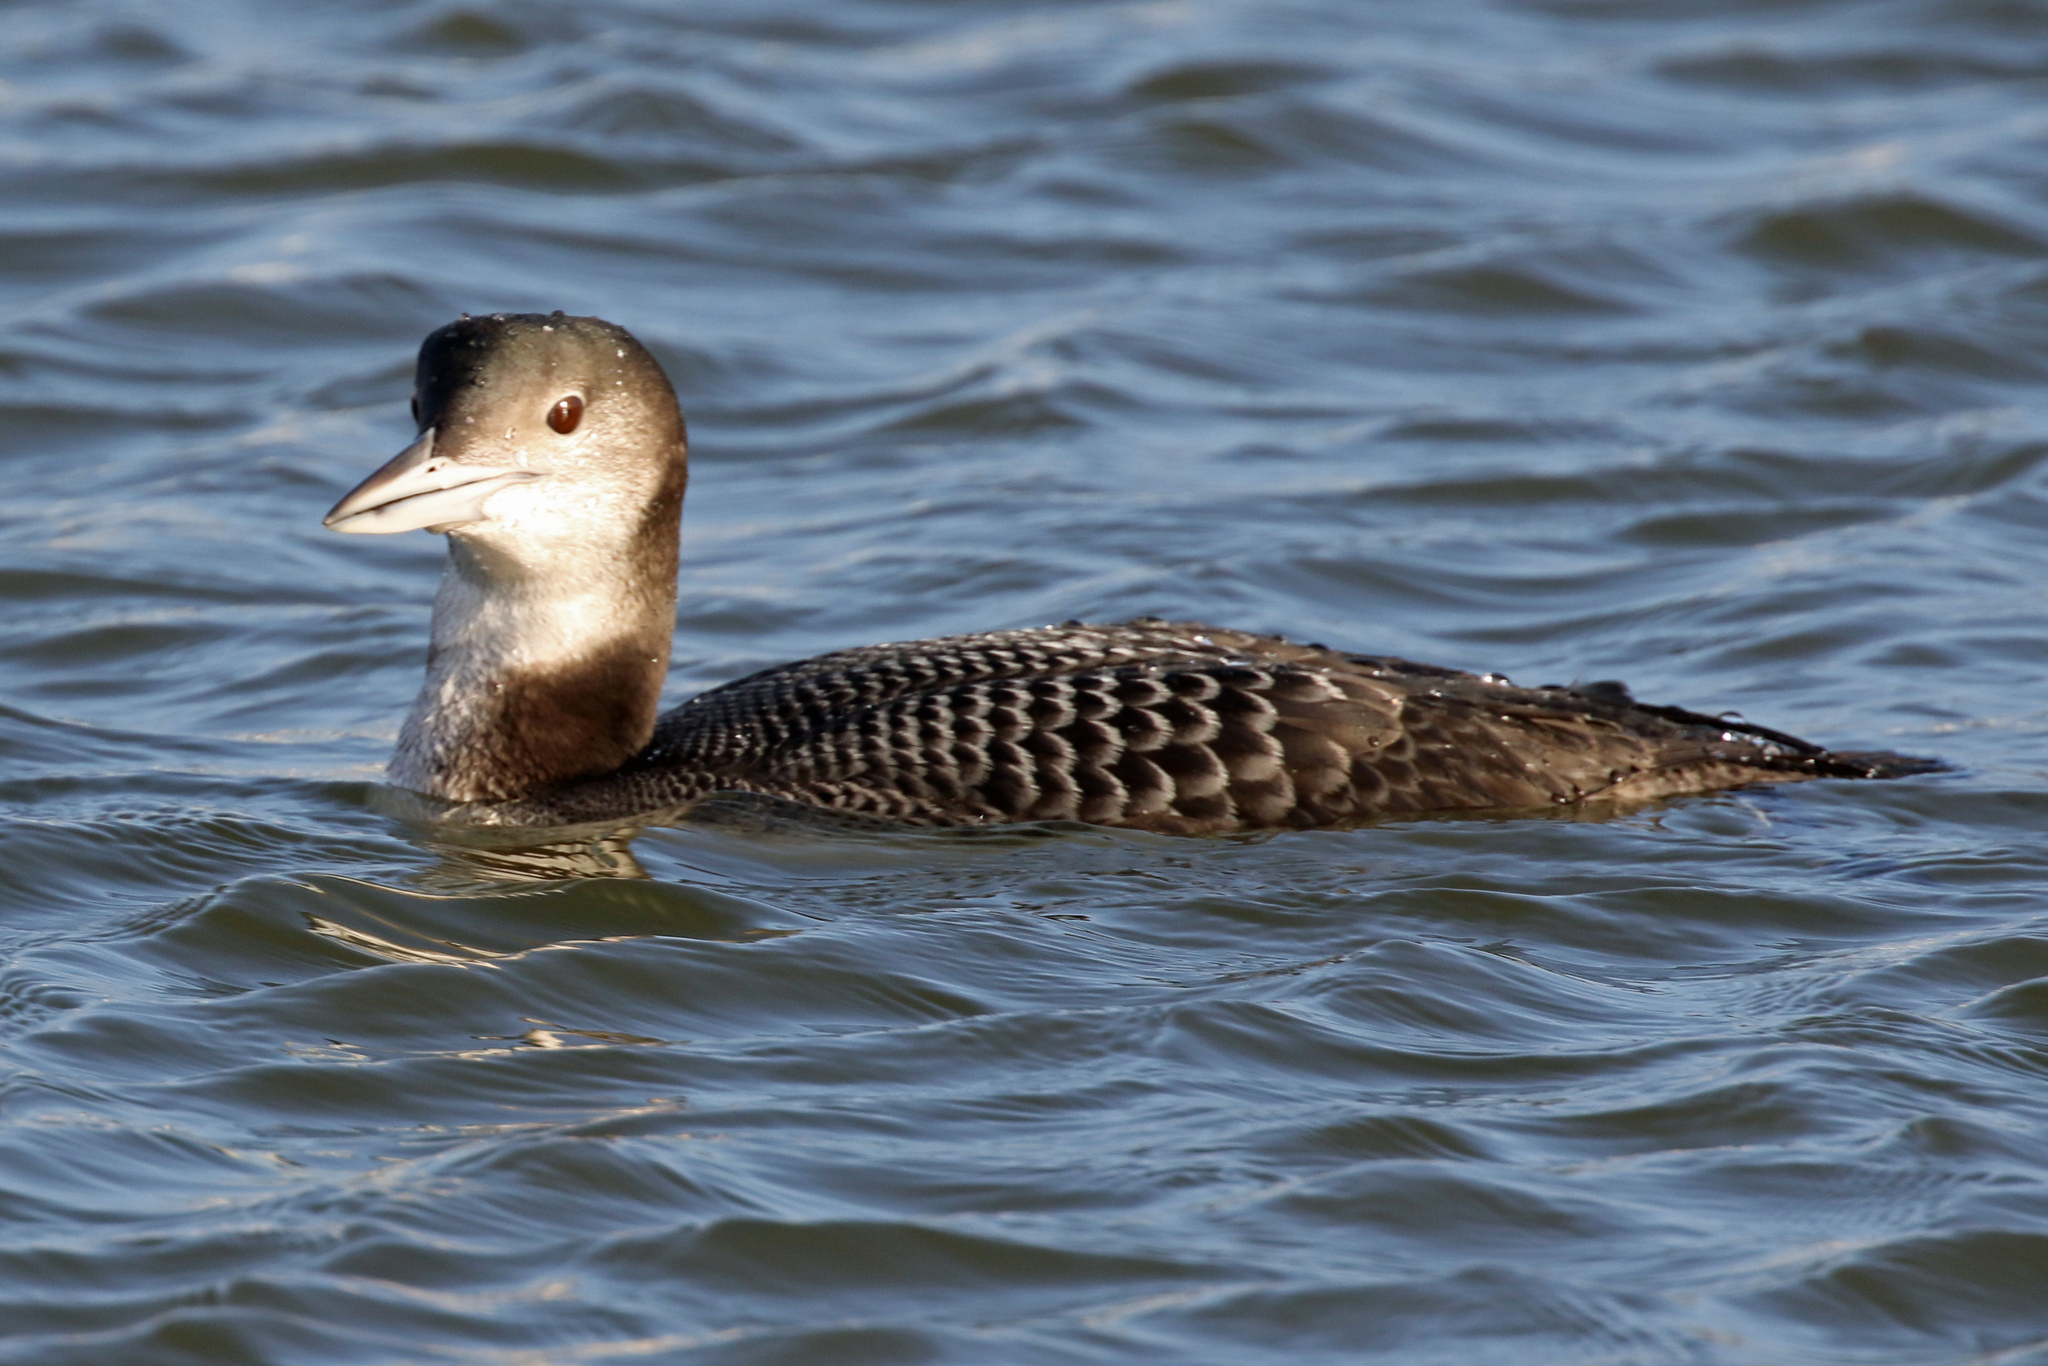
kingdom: Animalia
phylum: Chordata
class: Aves
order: Gaviiformes
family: Gaviidae
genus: Gavia
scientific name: Gavia immer
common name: Common loon
